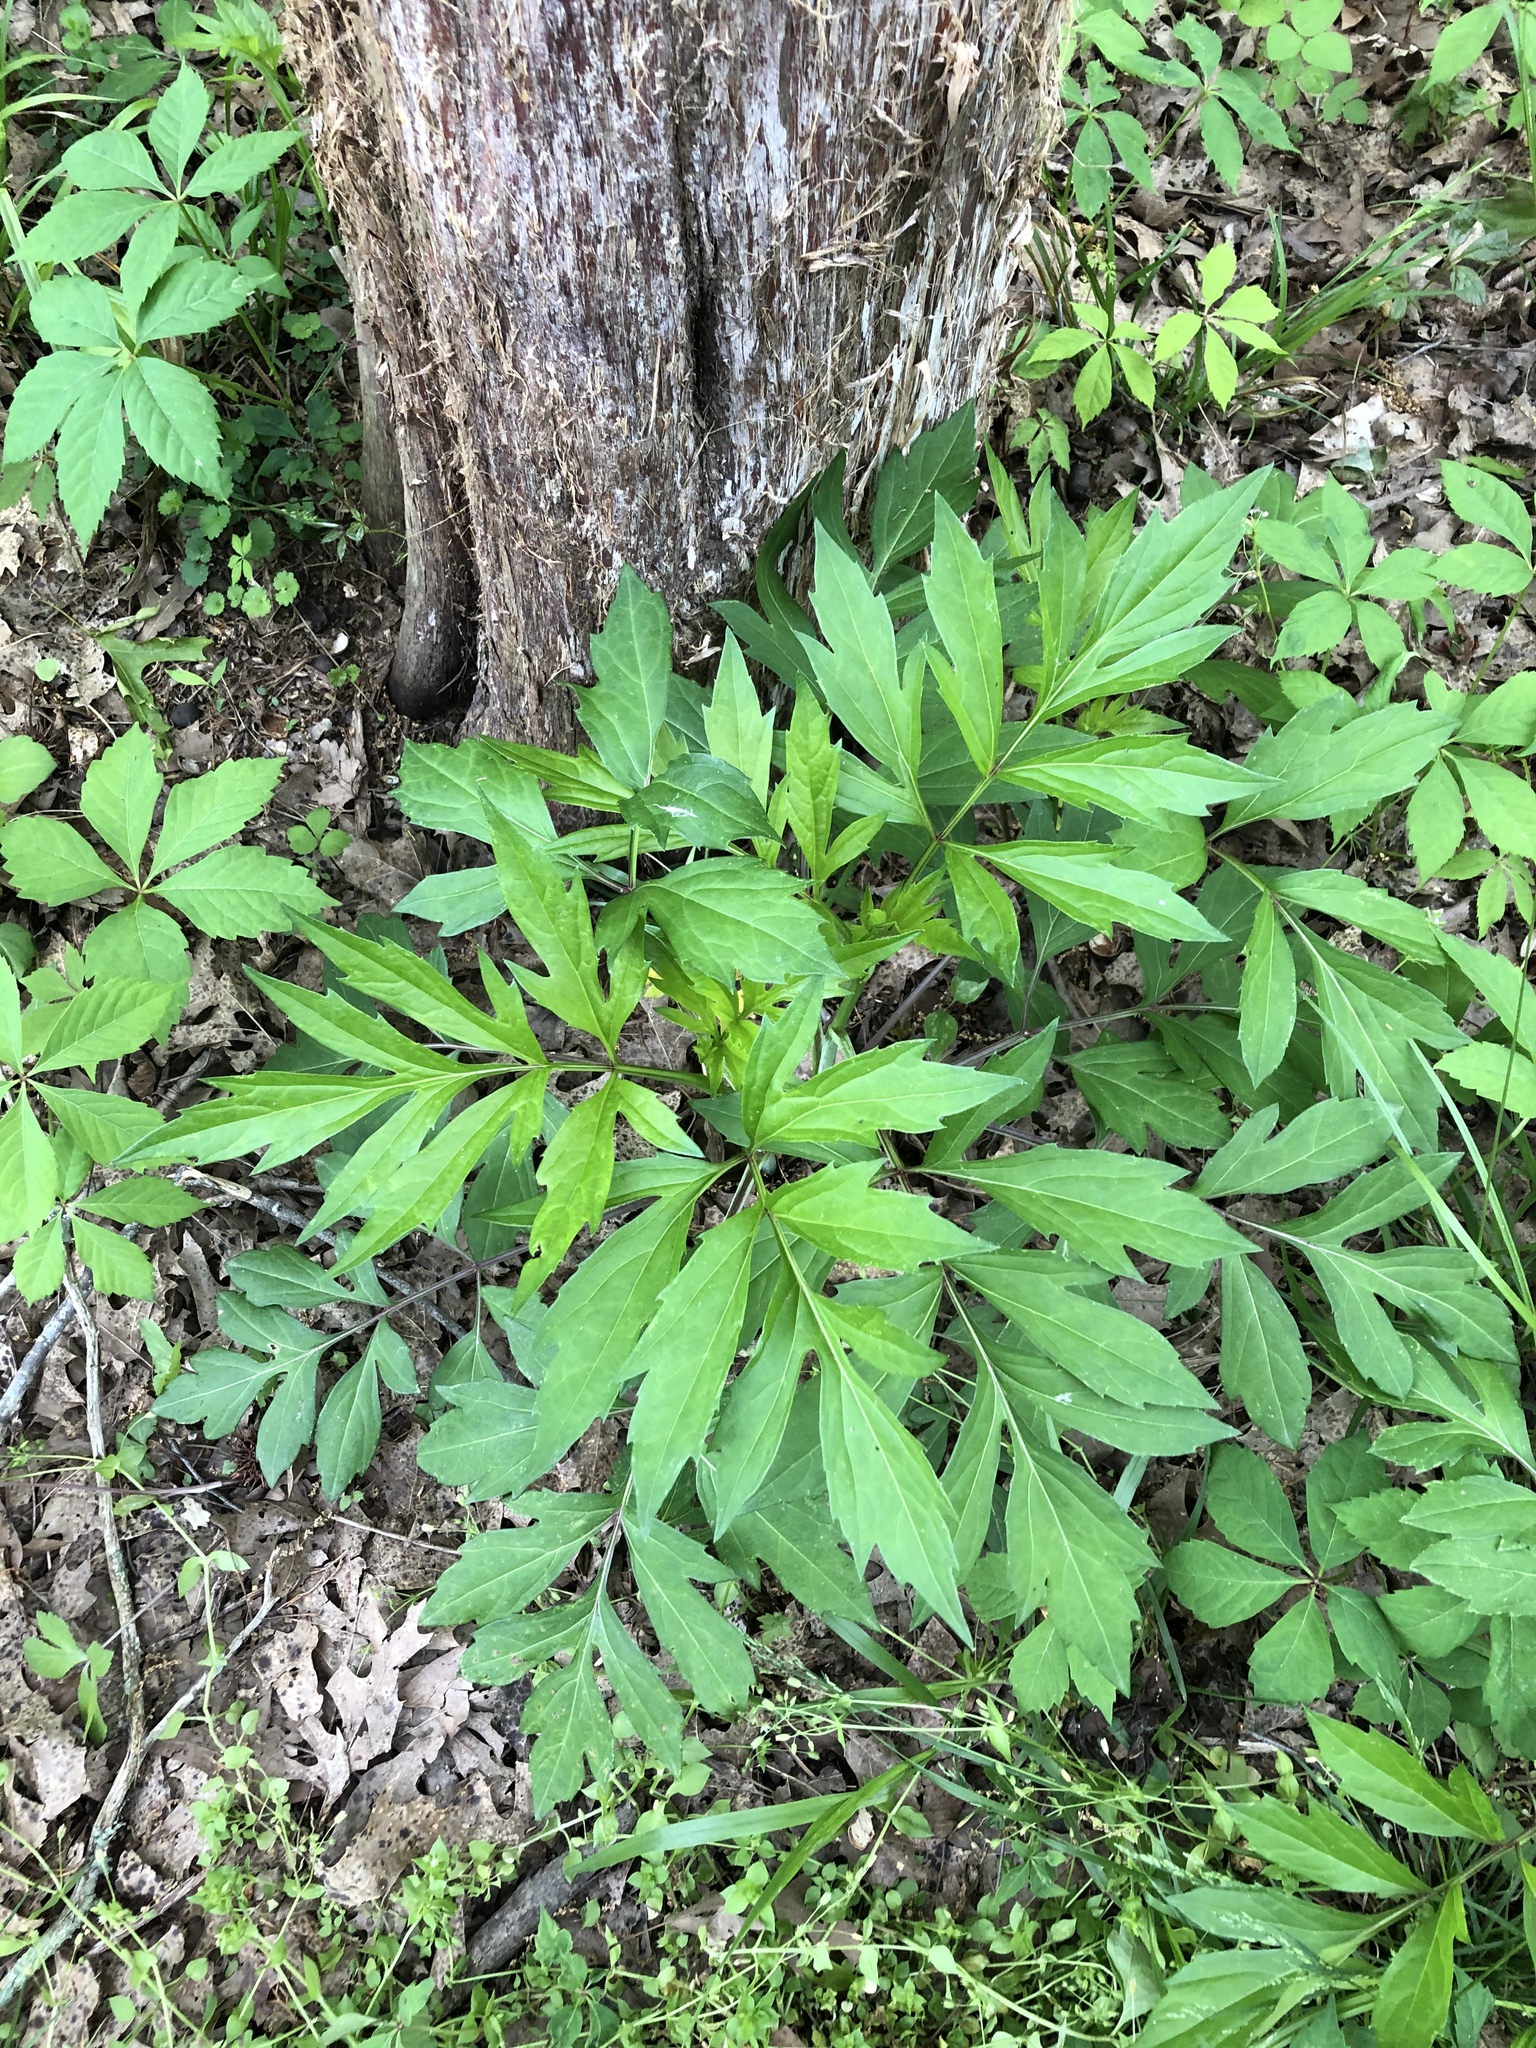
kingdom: Plantae
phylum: Tracheophyta
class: Magnoliopsida
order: Asterales
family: Asteraceae
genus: Rudbeckia
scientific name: Rudbeckia laciniata
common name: Coneflower
